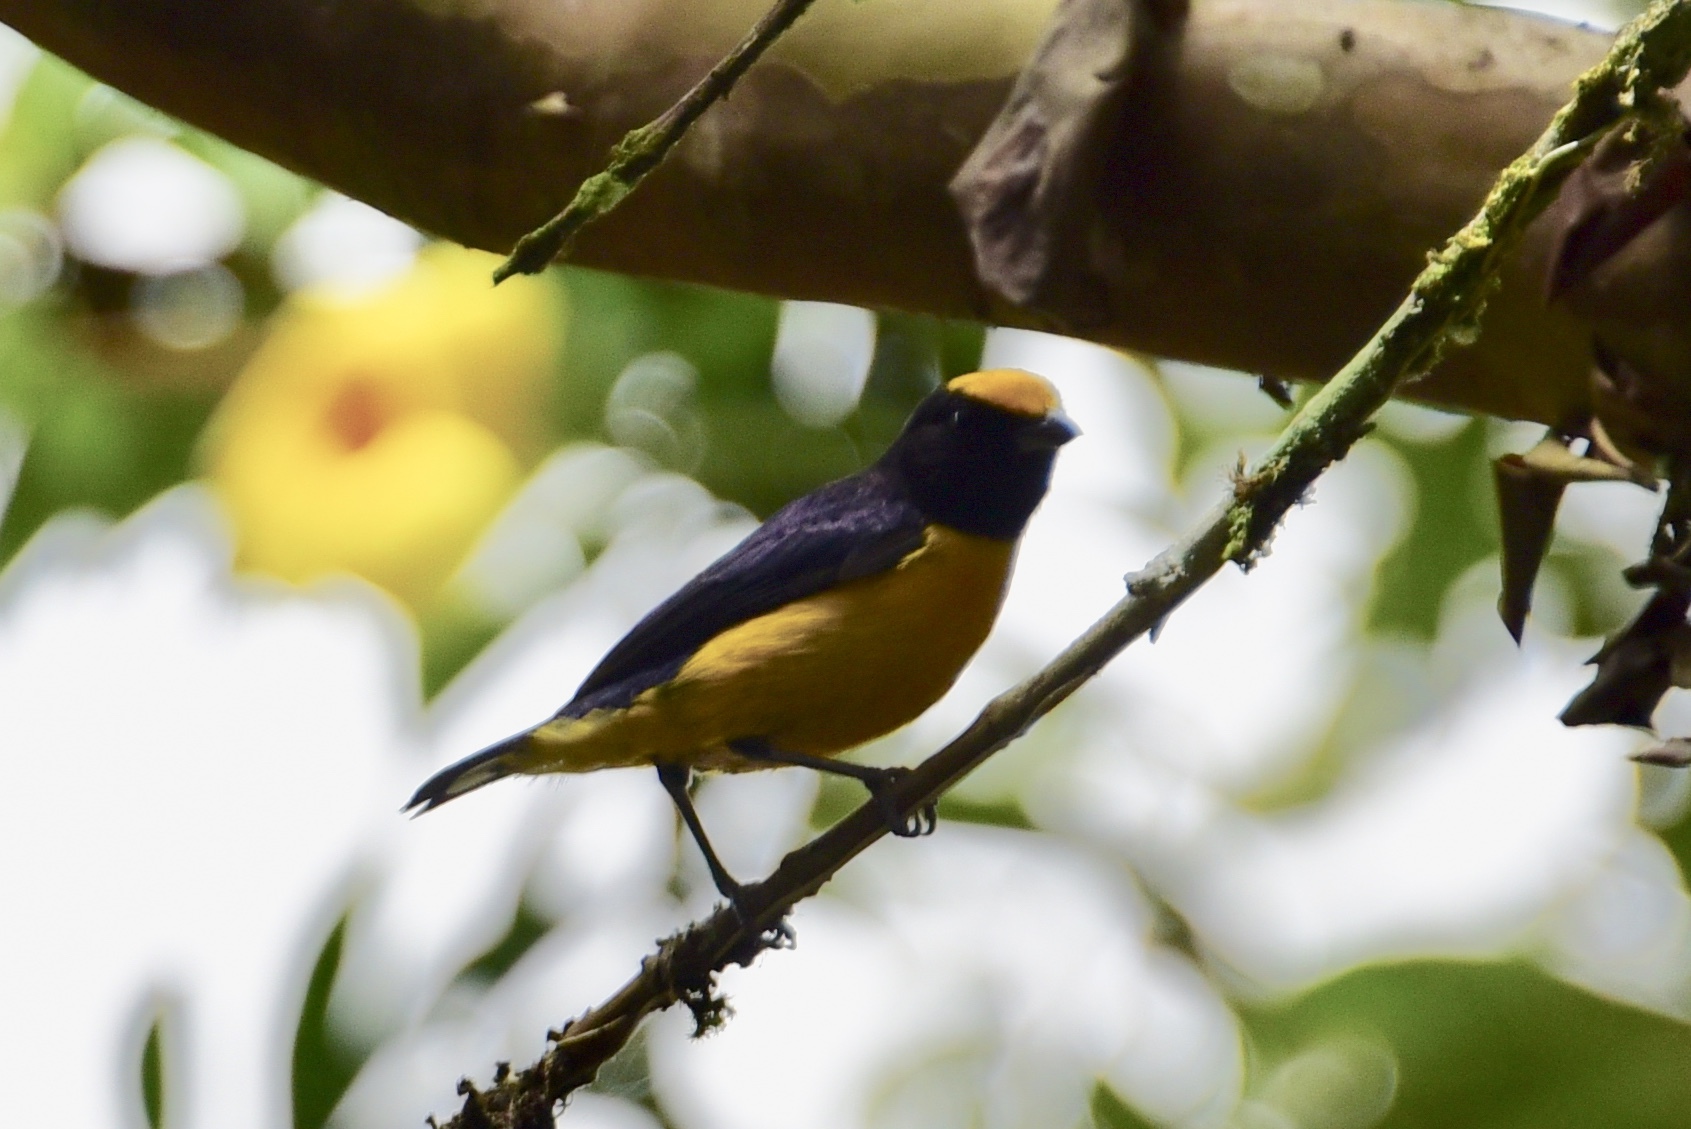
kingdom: Animalia
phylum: Chordata
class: Aves
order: Passeriformes
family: Fringillidae
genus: Euphonia
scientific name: Euphonia xanthogaster
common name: Orange-bellied euphonia
